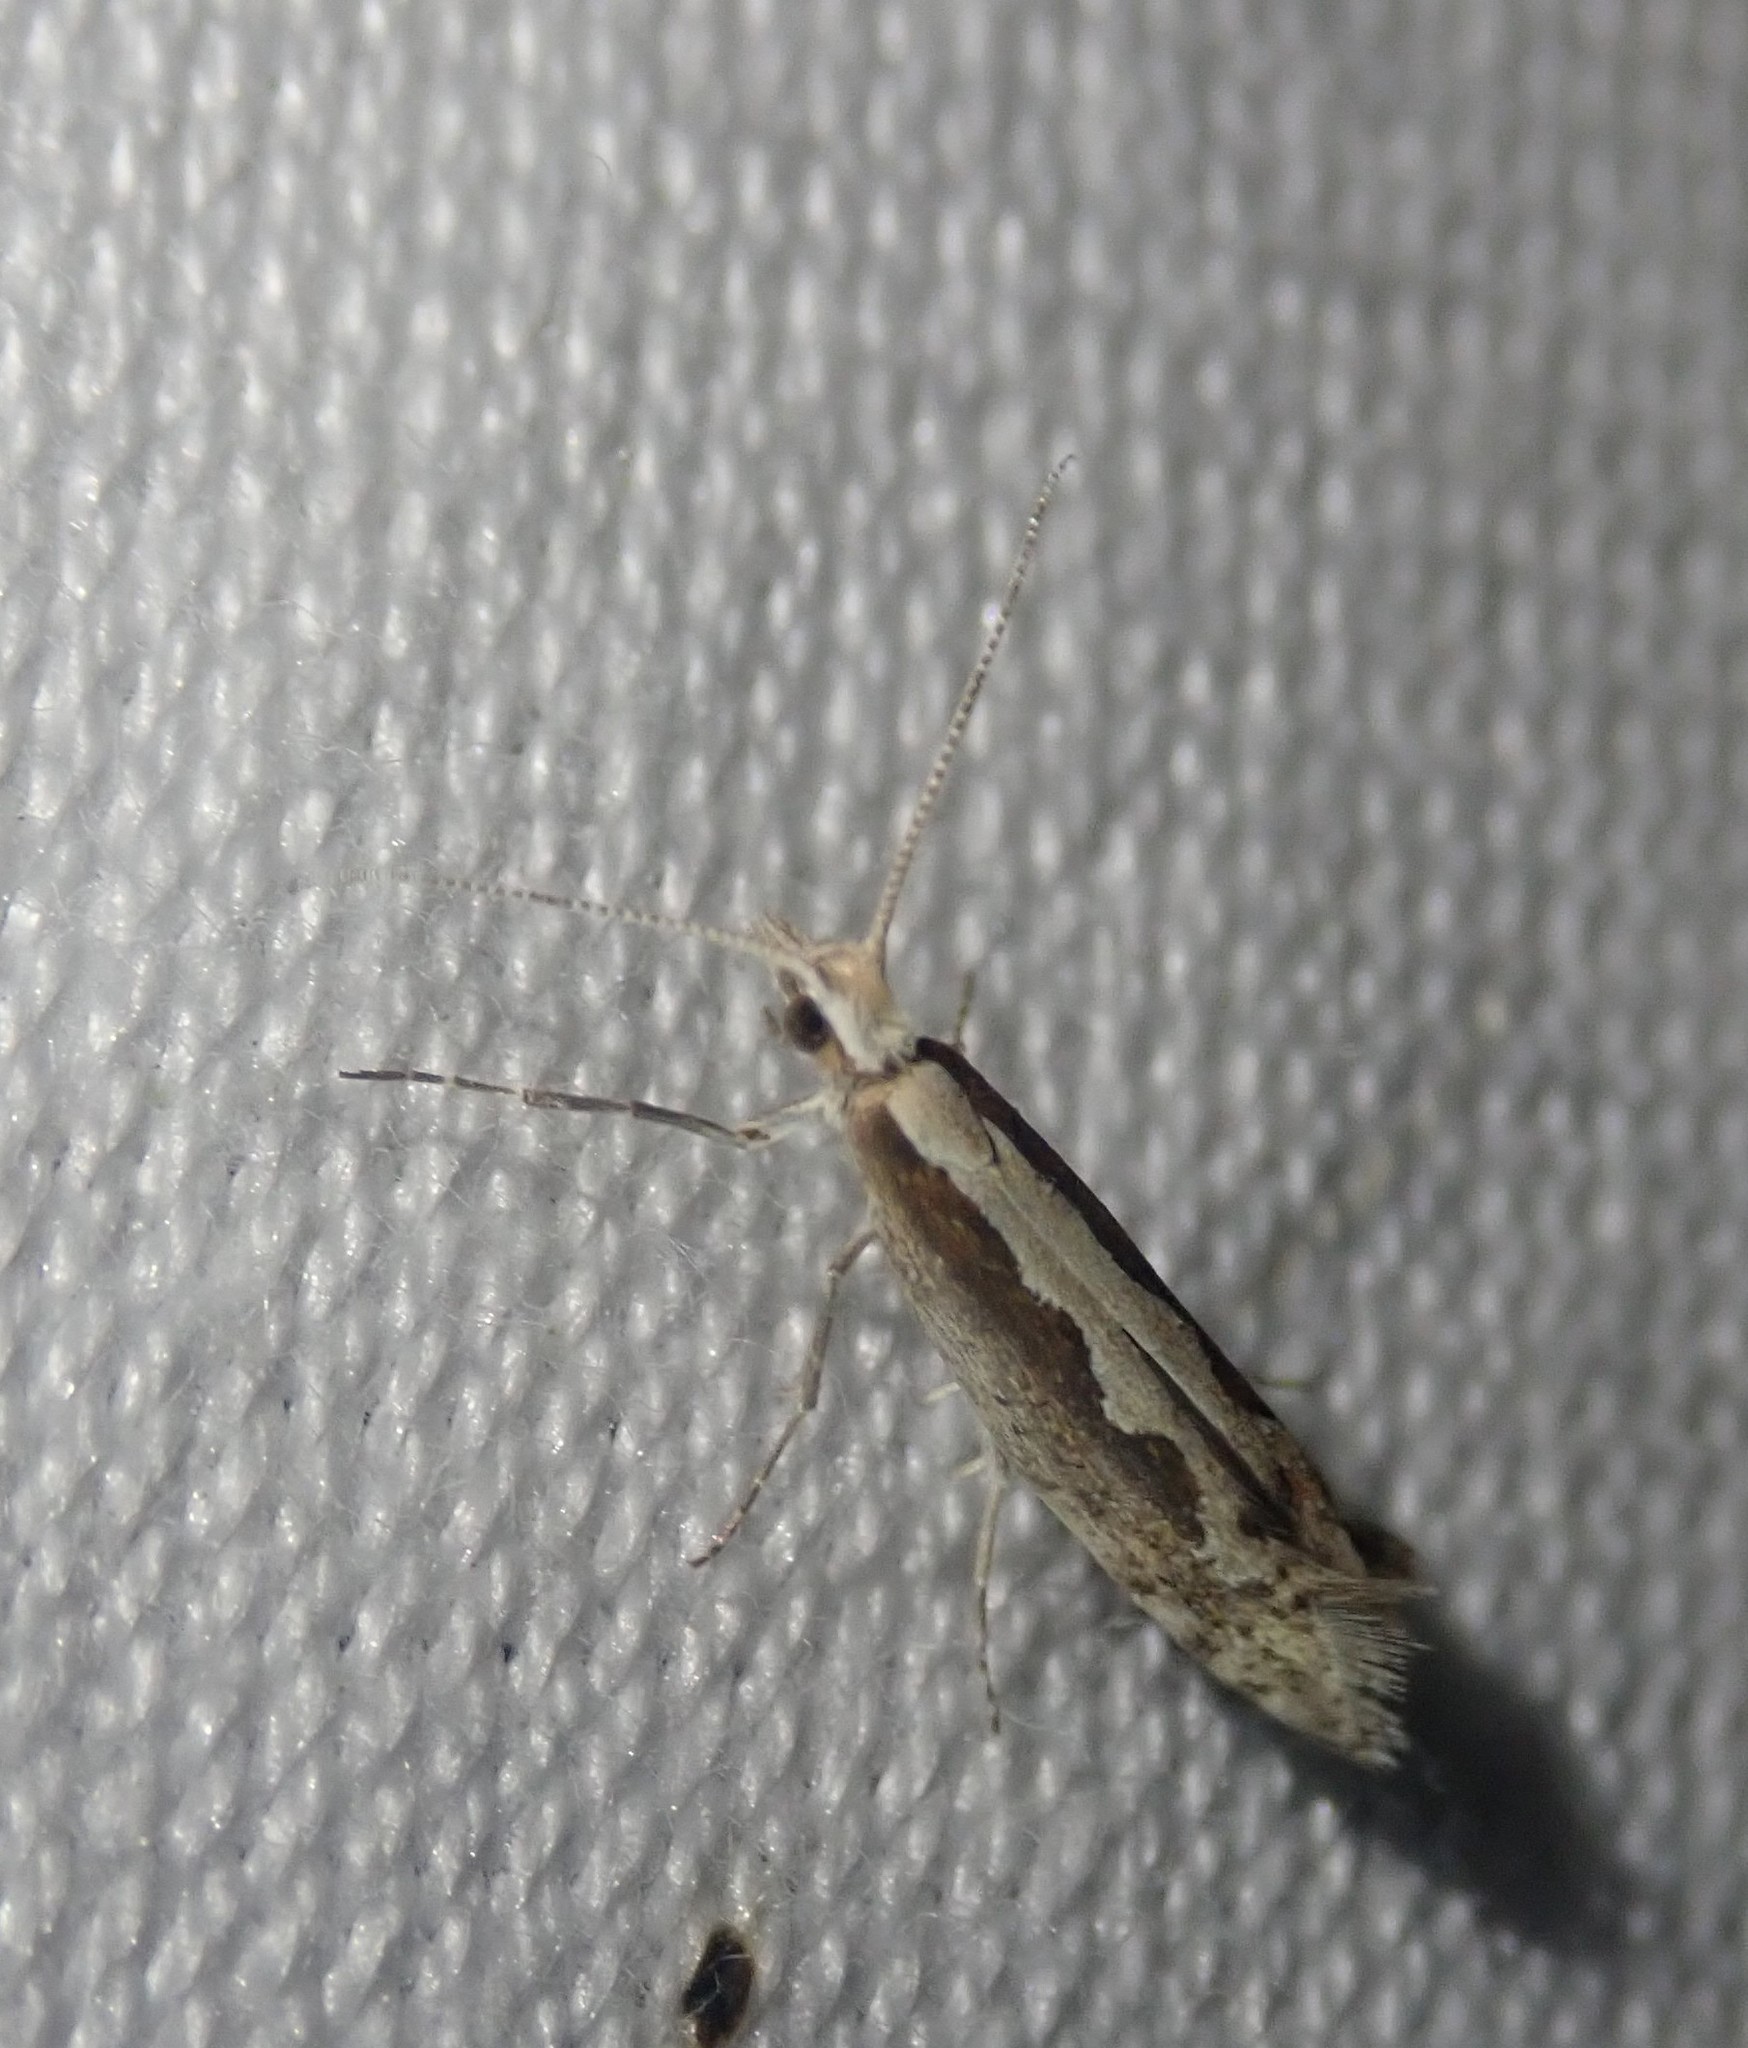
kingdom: Animalia
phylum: Arthropoda
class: Insecta
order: Lepidoptera
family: Plutellidae
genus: Plutella
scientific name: Plutella xylostella
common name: Diamond-back moth
